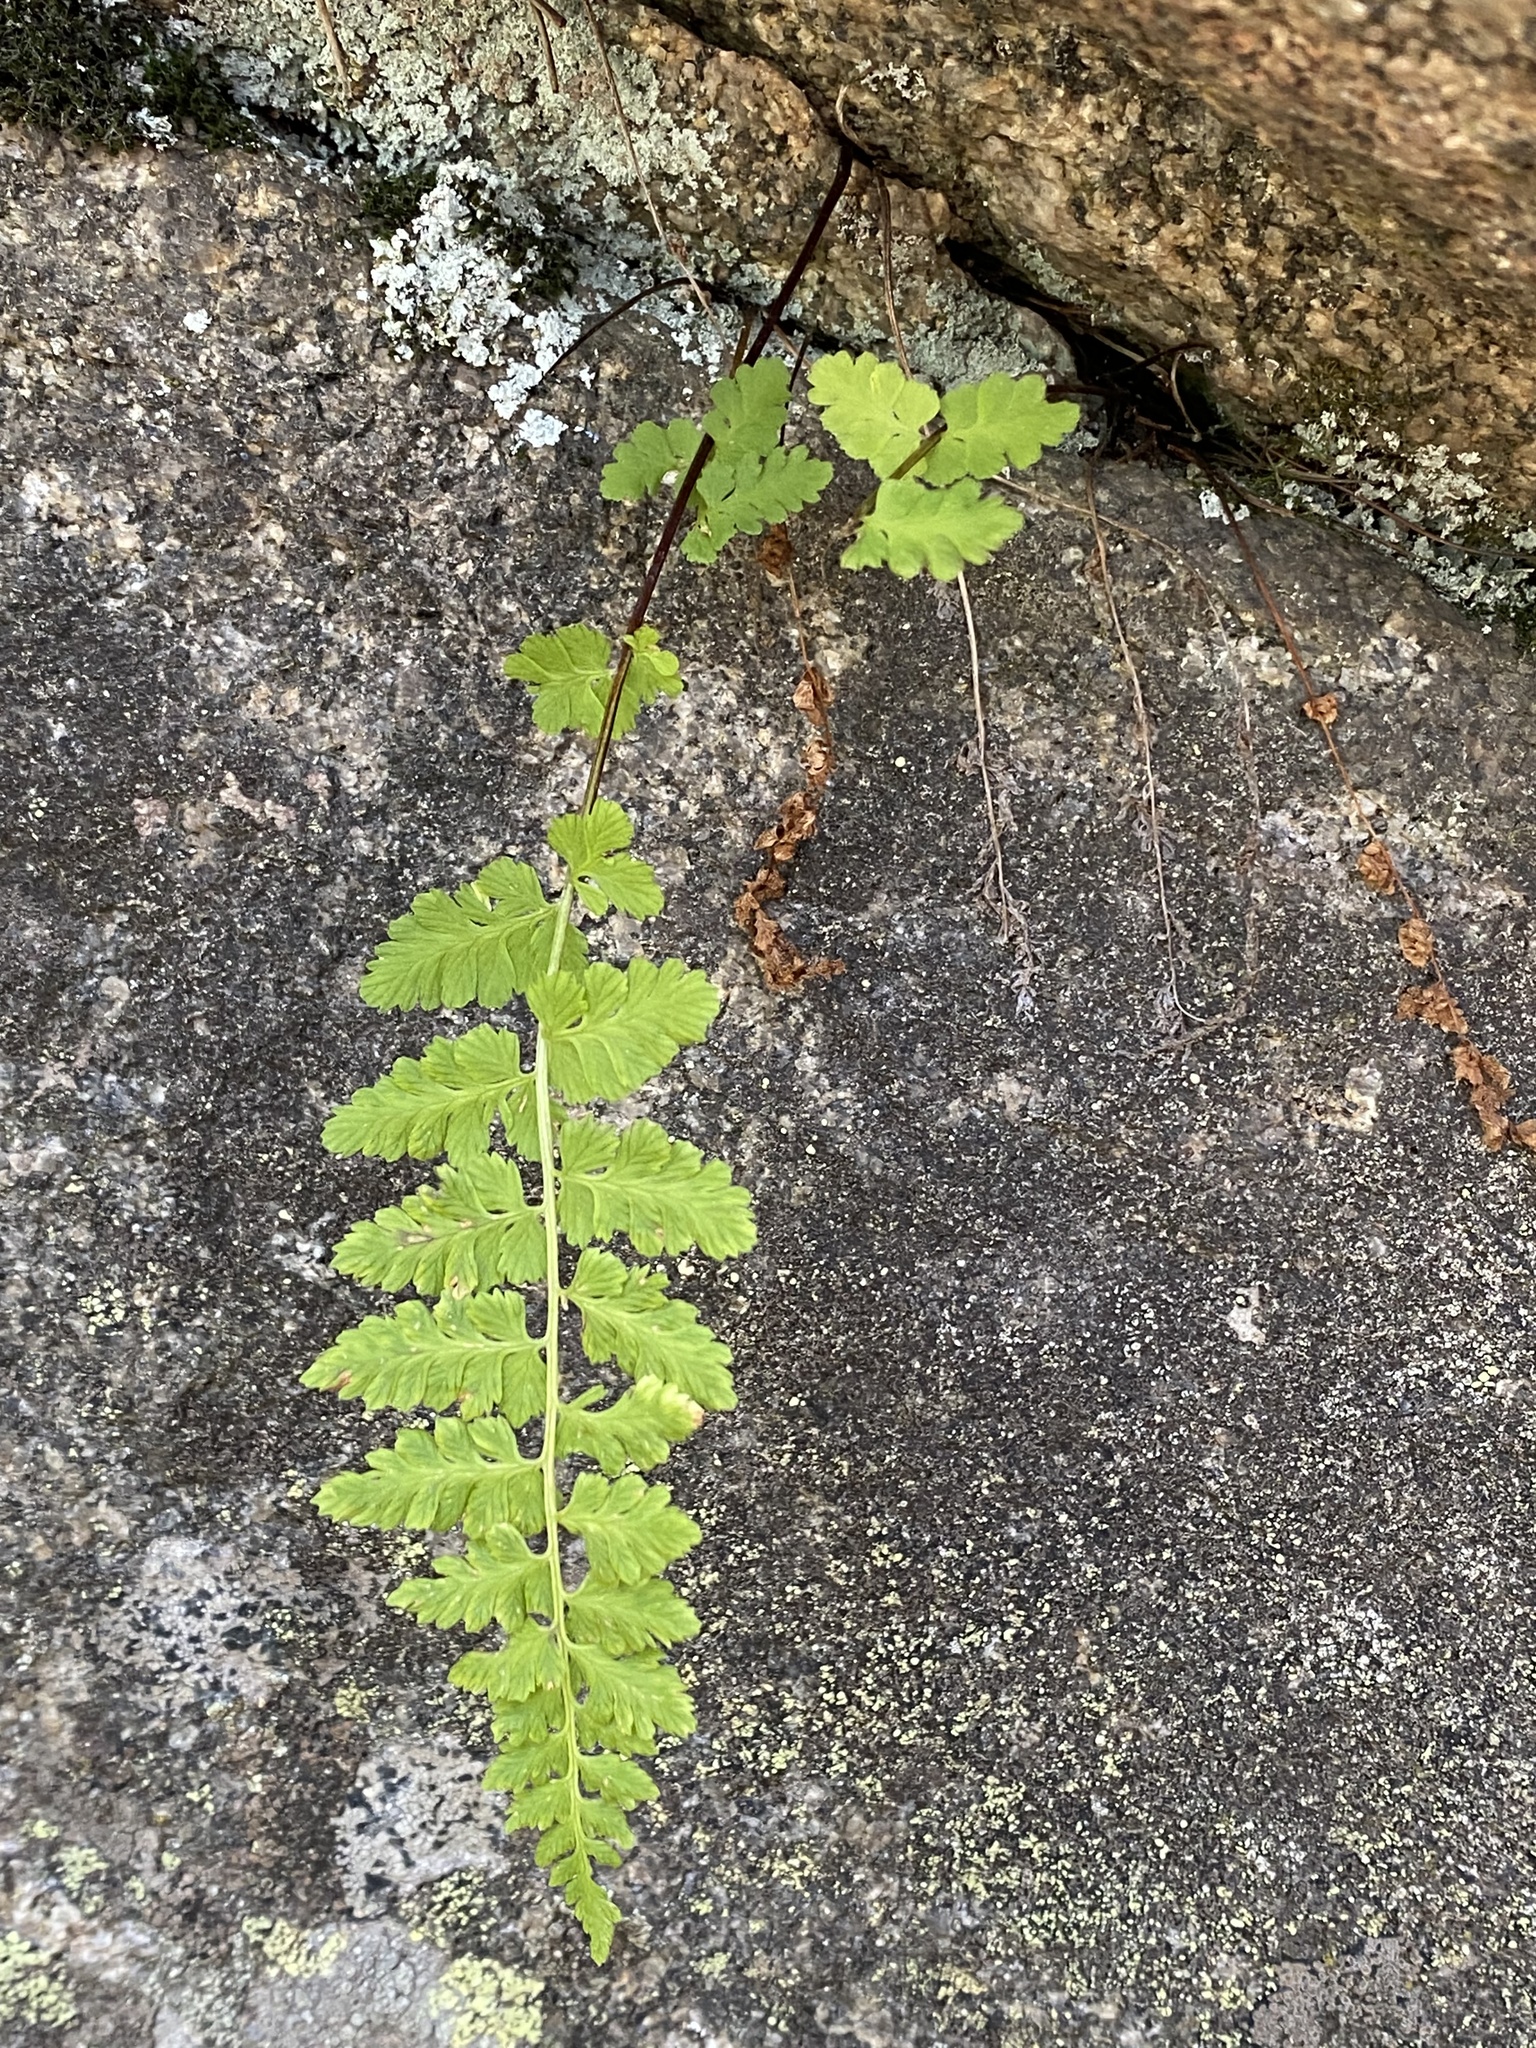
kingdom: Plantae
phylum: Tracheophyta
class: Polypodiopsida
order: Polypodiales
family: Cystopteridaceae
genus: Cystopteris
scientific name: Cystopteris fragilis
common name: Brittle bladder fern
